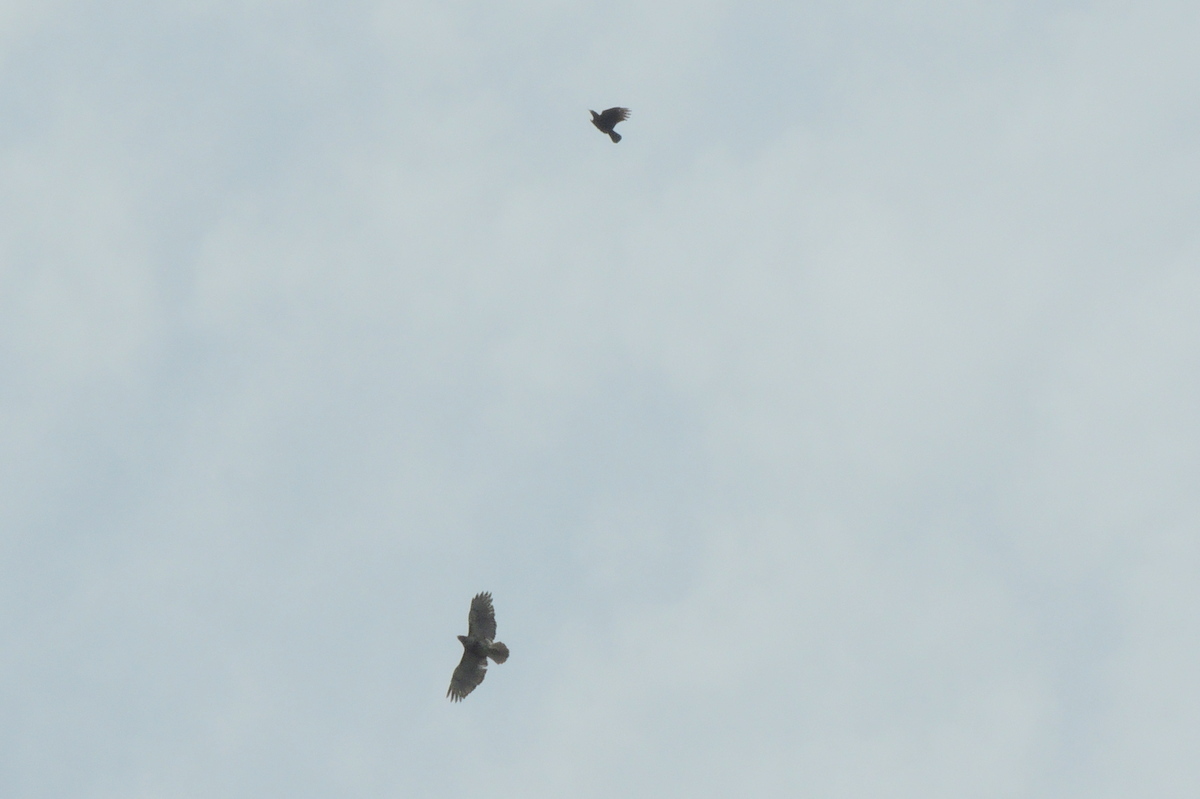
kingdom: Animalia
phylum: Chordata
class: Aves
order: Passeriformes
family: Corvidae
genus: Corvus
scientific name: Corvus
